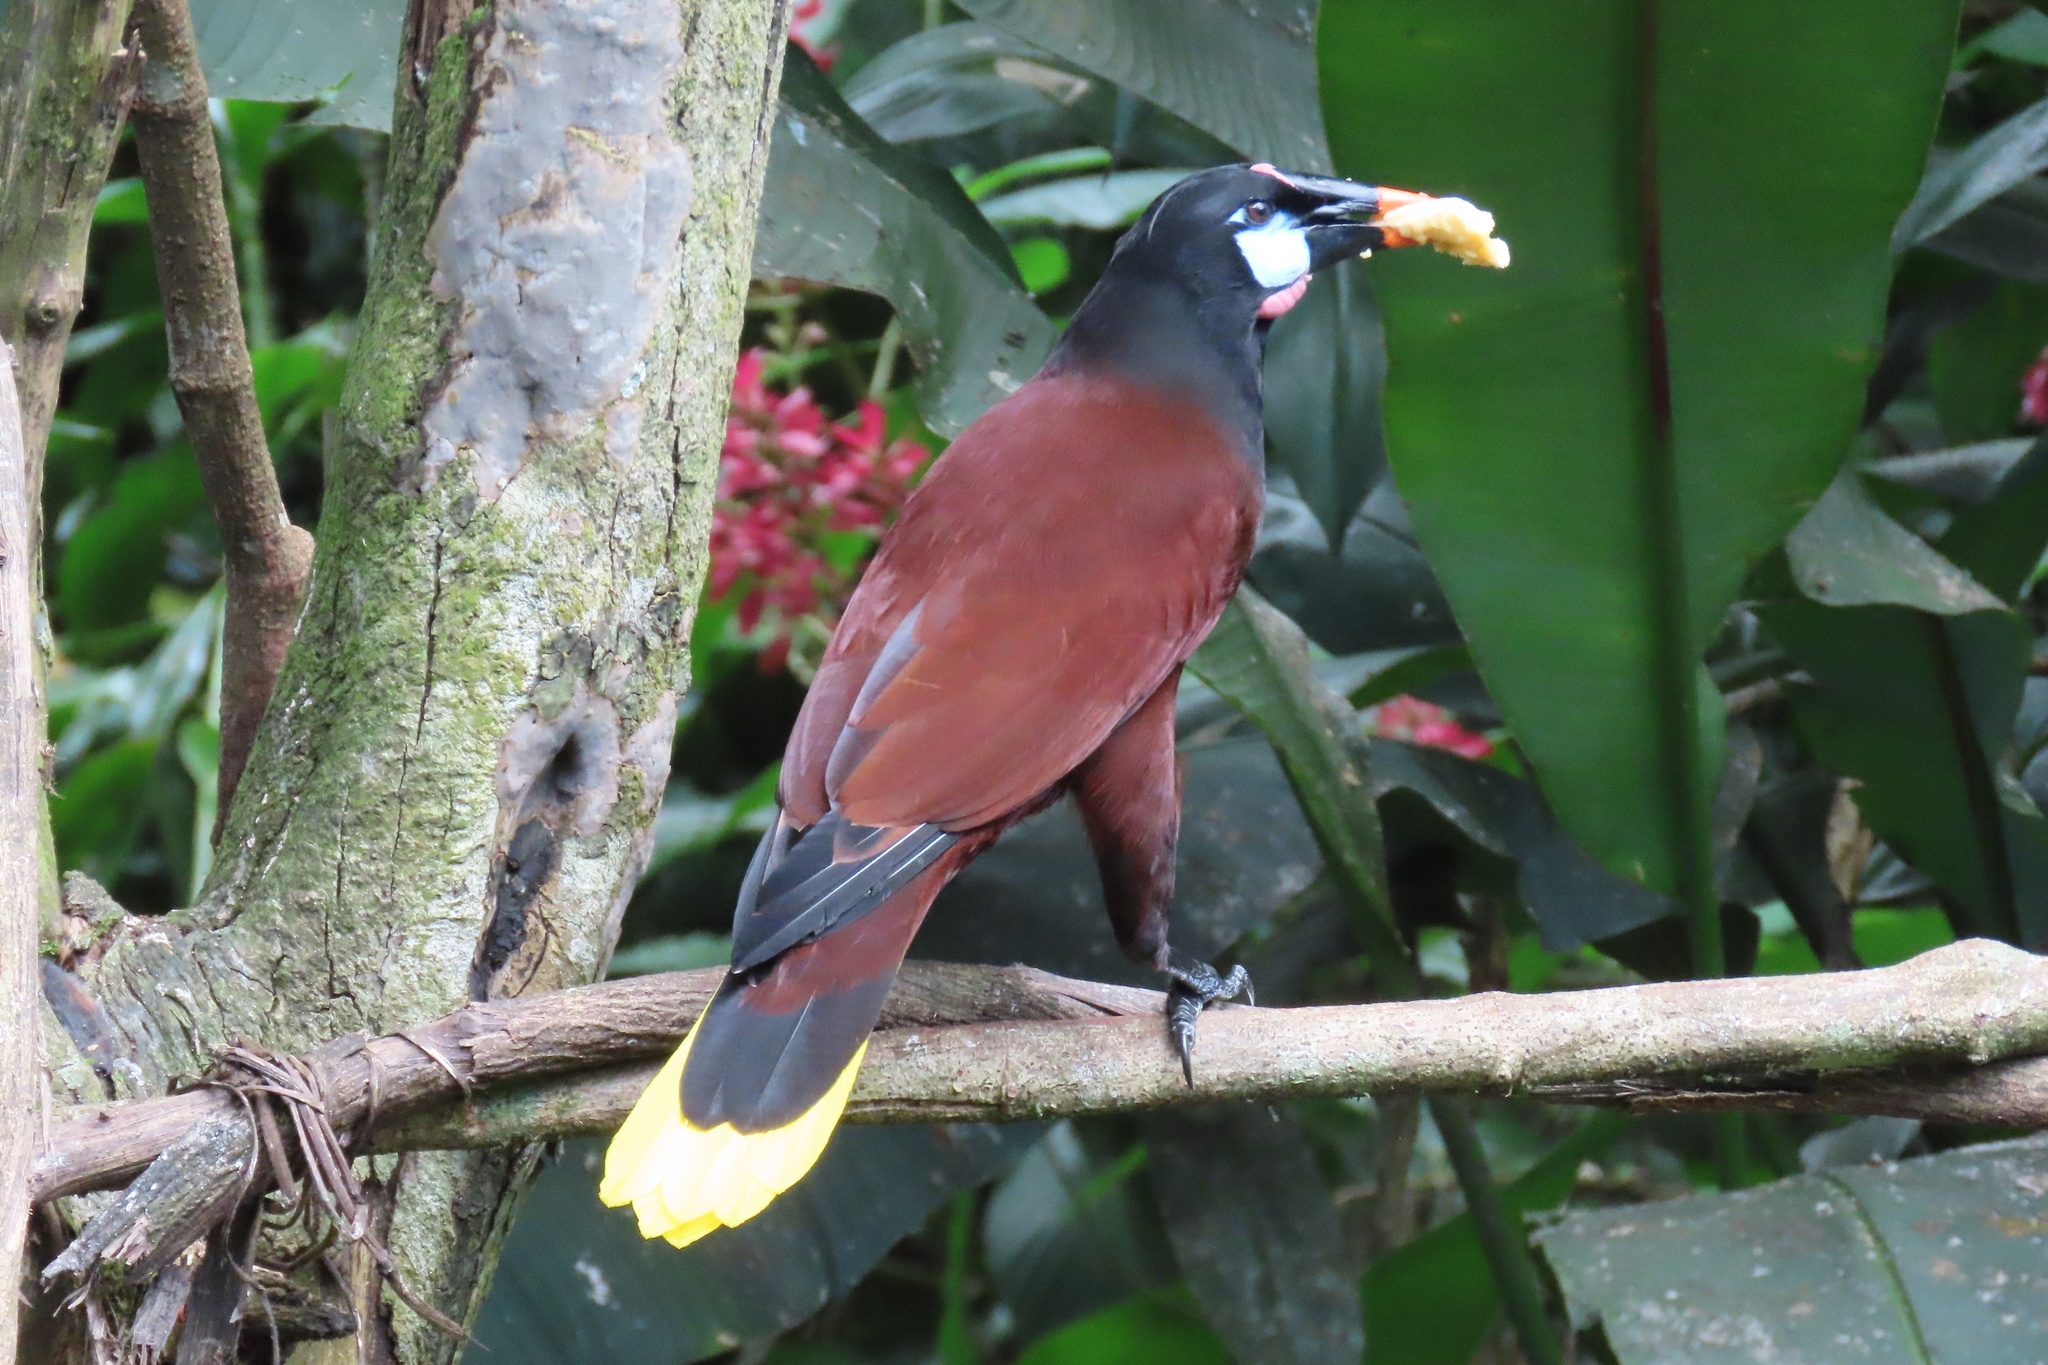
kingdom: Animalia
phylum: Chordata
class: Aves
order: Passeriformes
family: Icteridae
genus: Psarocolius
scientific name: Psarocolius montezuma
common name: Montezuma oropendola
